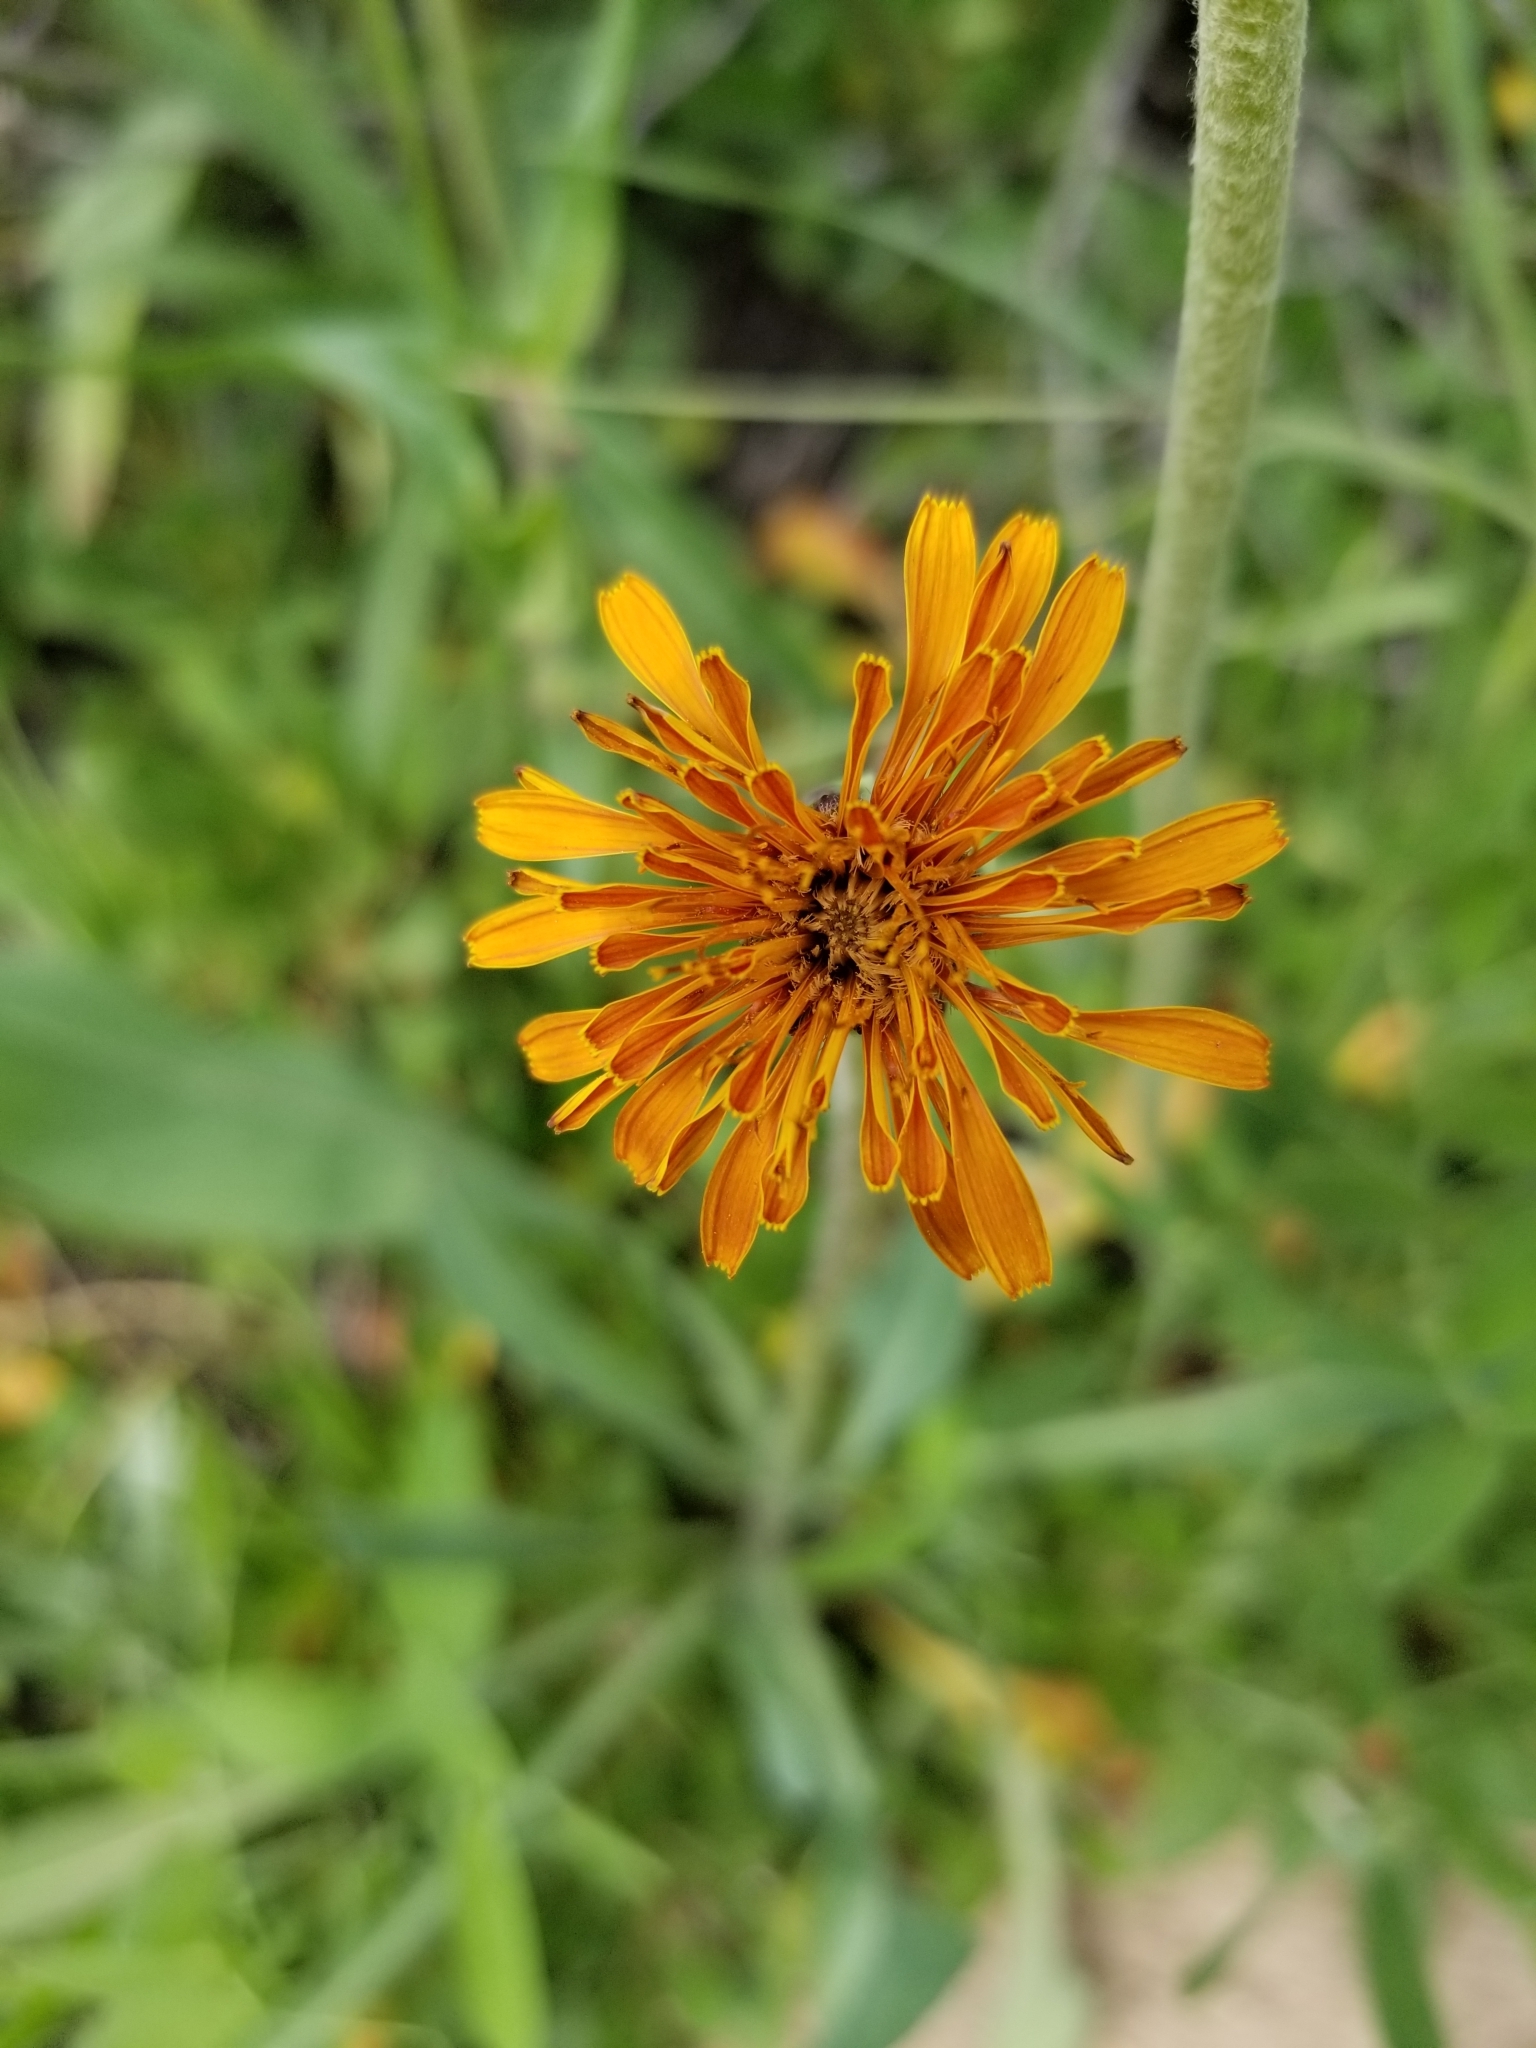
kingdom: Plantae
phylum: Tracheophyta
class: Magnoliopsida
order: Asterales
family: Asteraceae
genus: Agoseris
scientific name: Agoseris aurantiaca
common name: Mountain agoseris
